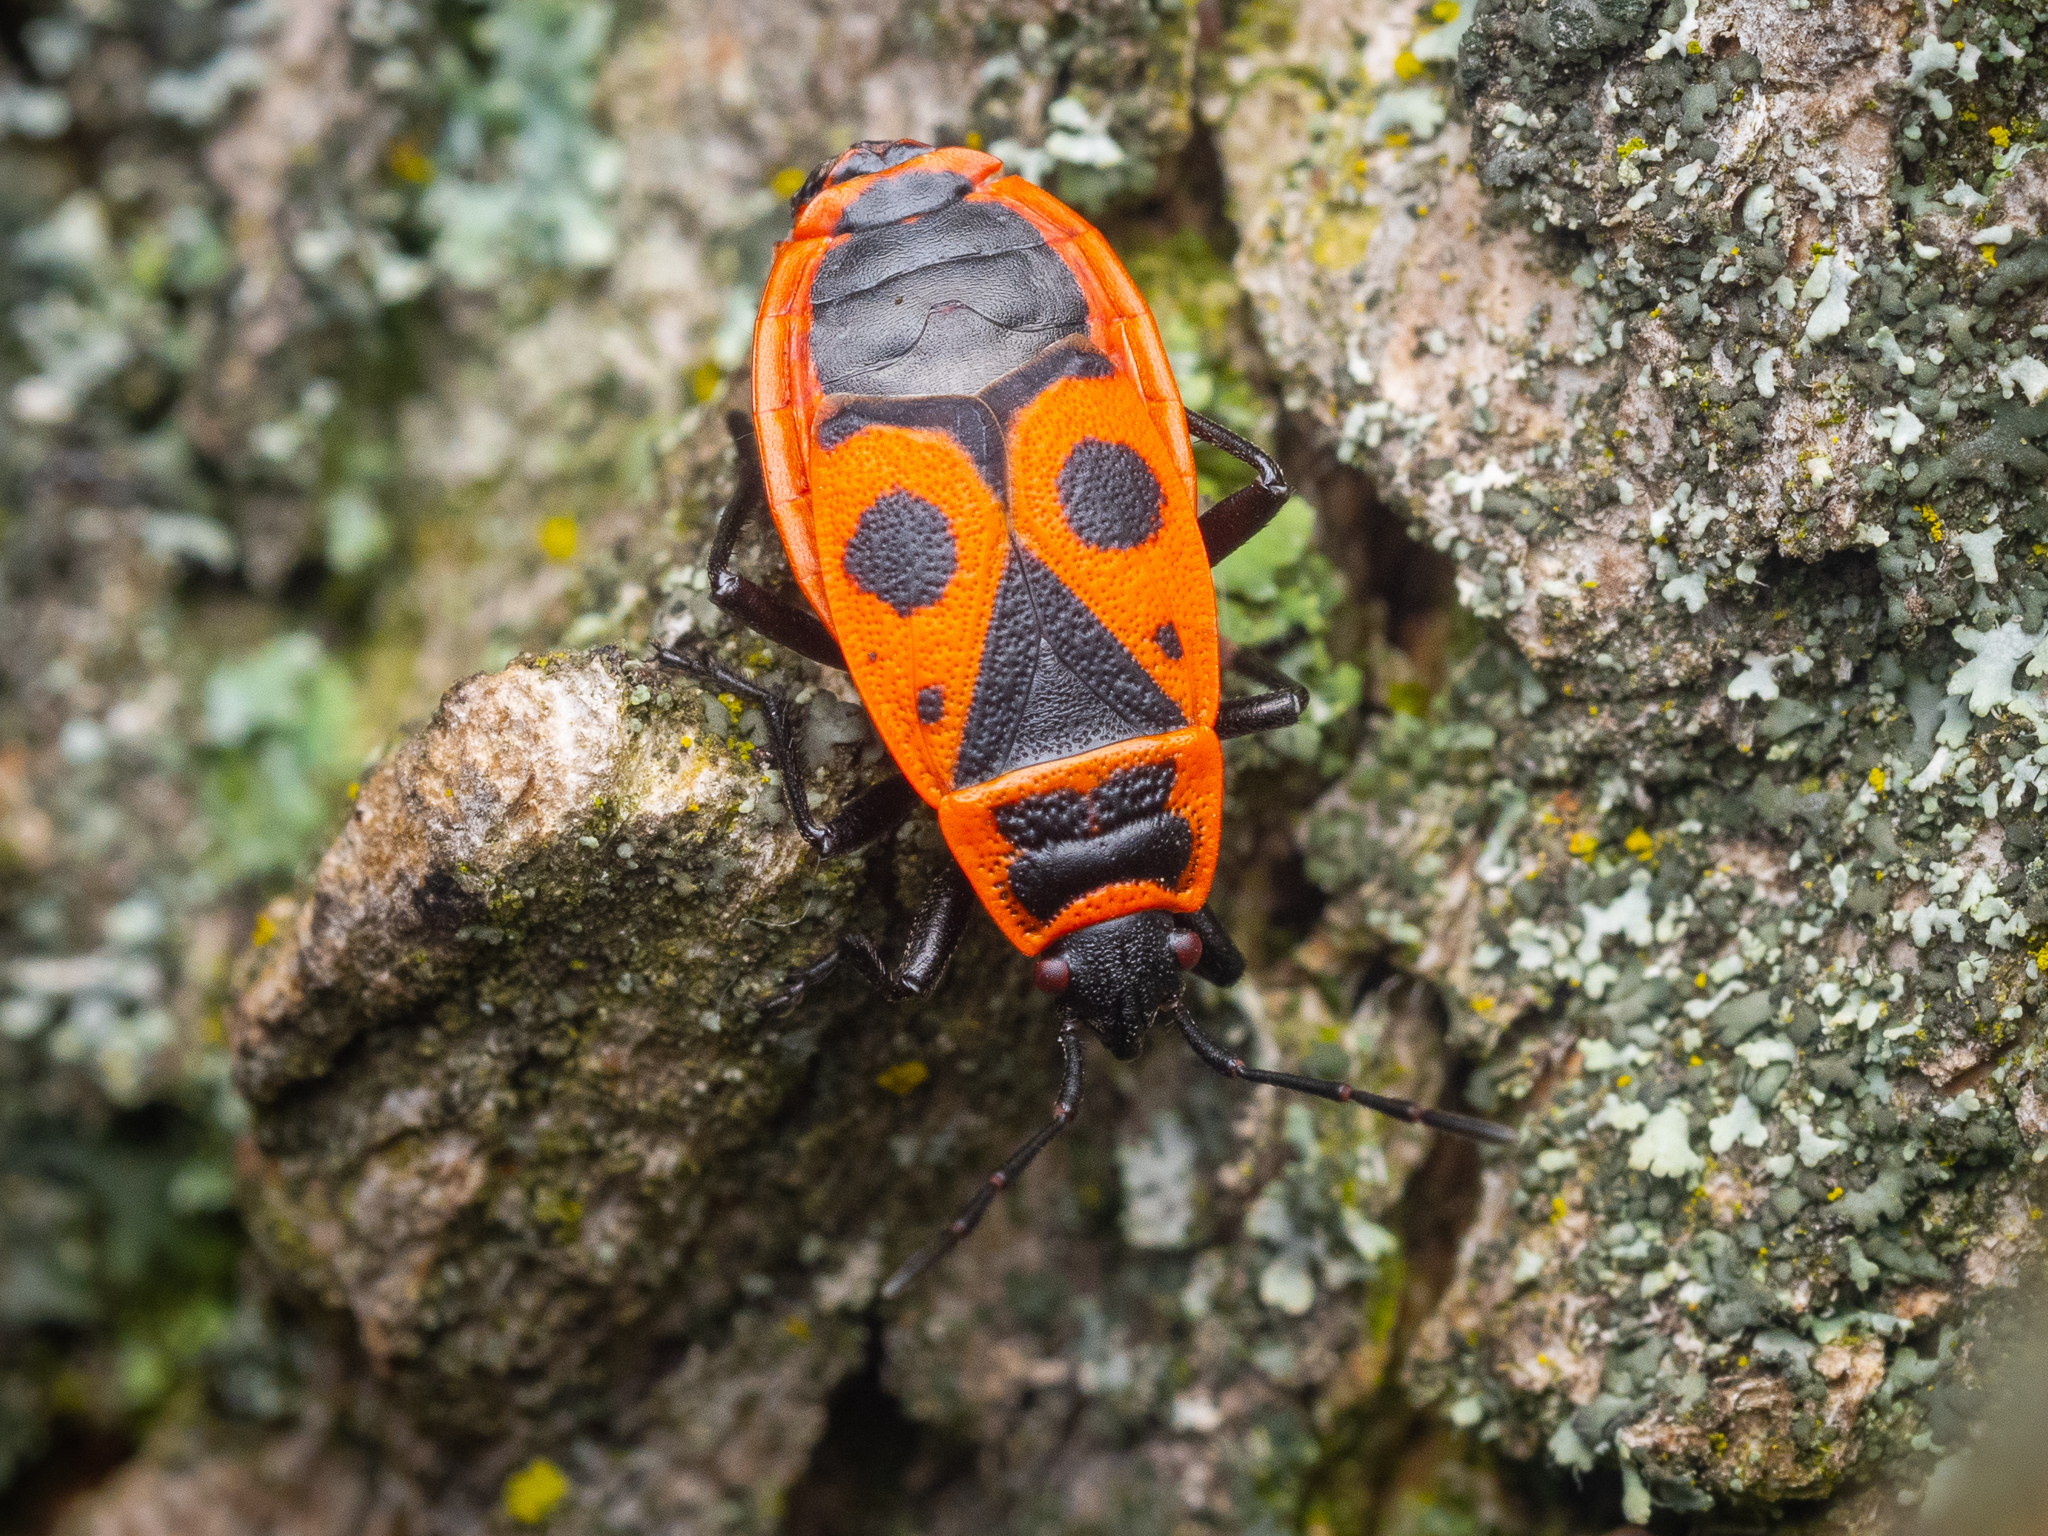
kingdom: Animalia
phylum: Arthropoda
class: Insecta
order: Hemiptera
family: Pyrrhocoridae
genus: Pyrrhocoris
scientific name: Pyrrhocoris apterus
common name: Firebug
